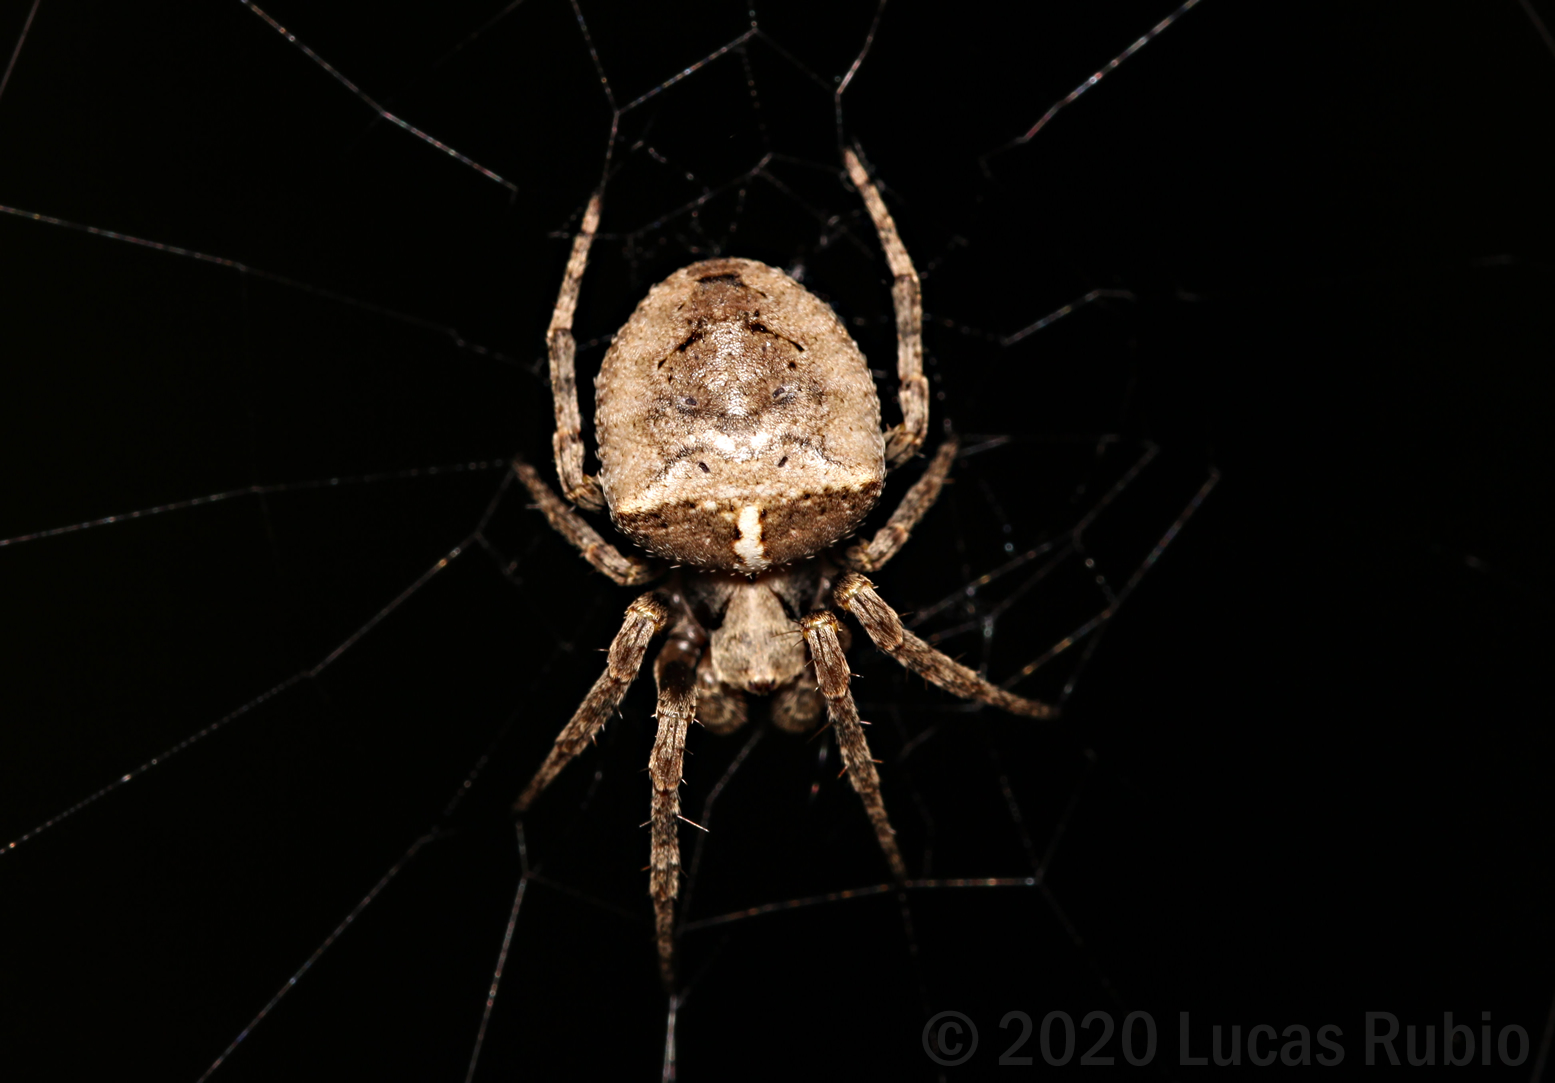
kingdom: Animalia
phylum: Arthropoda
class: Arachnida
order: Araneae
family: Araneidae
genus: Ocrepeira
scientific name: Ocrepeira
